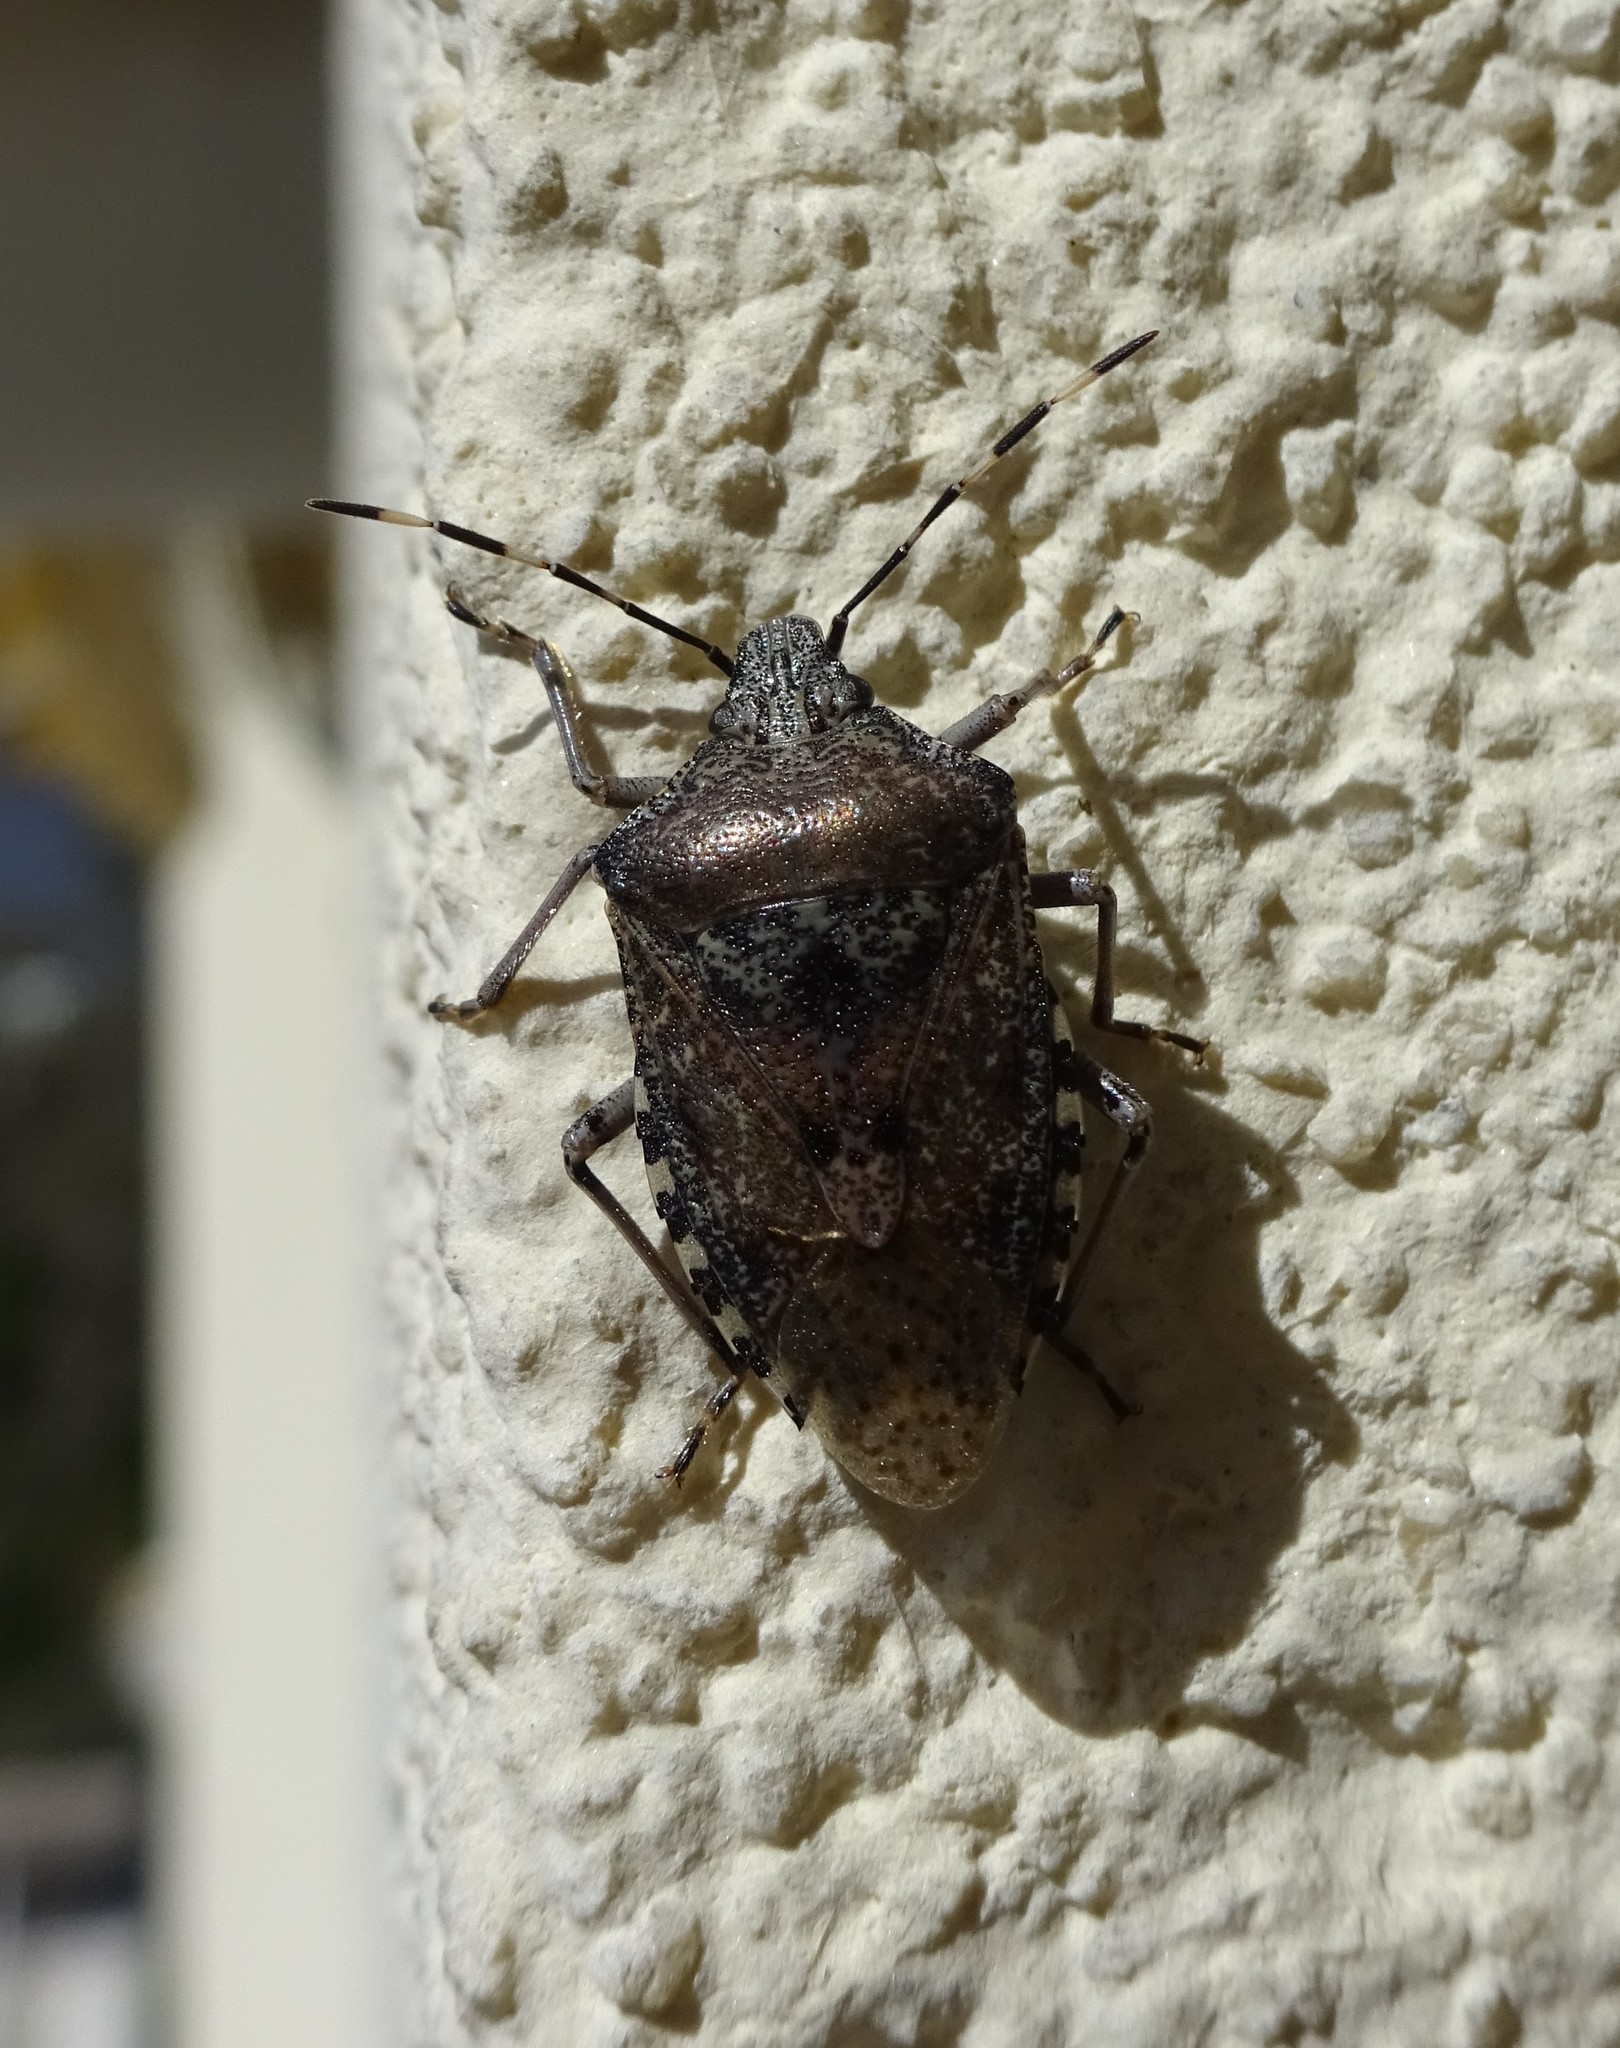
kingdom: Animalia
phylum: Arthropoda
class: Insecta
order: Hemiptera
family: Pentatomidae
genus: Rhaphigaster
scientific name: Rhaphigaster nebulosa
